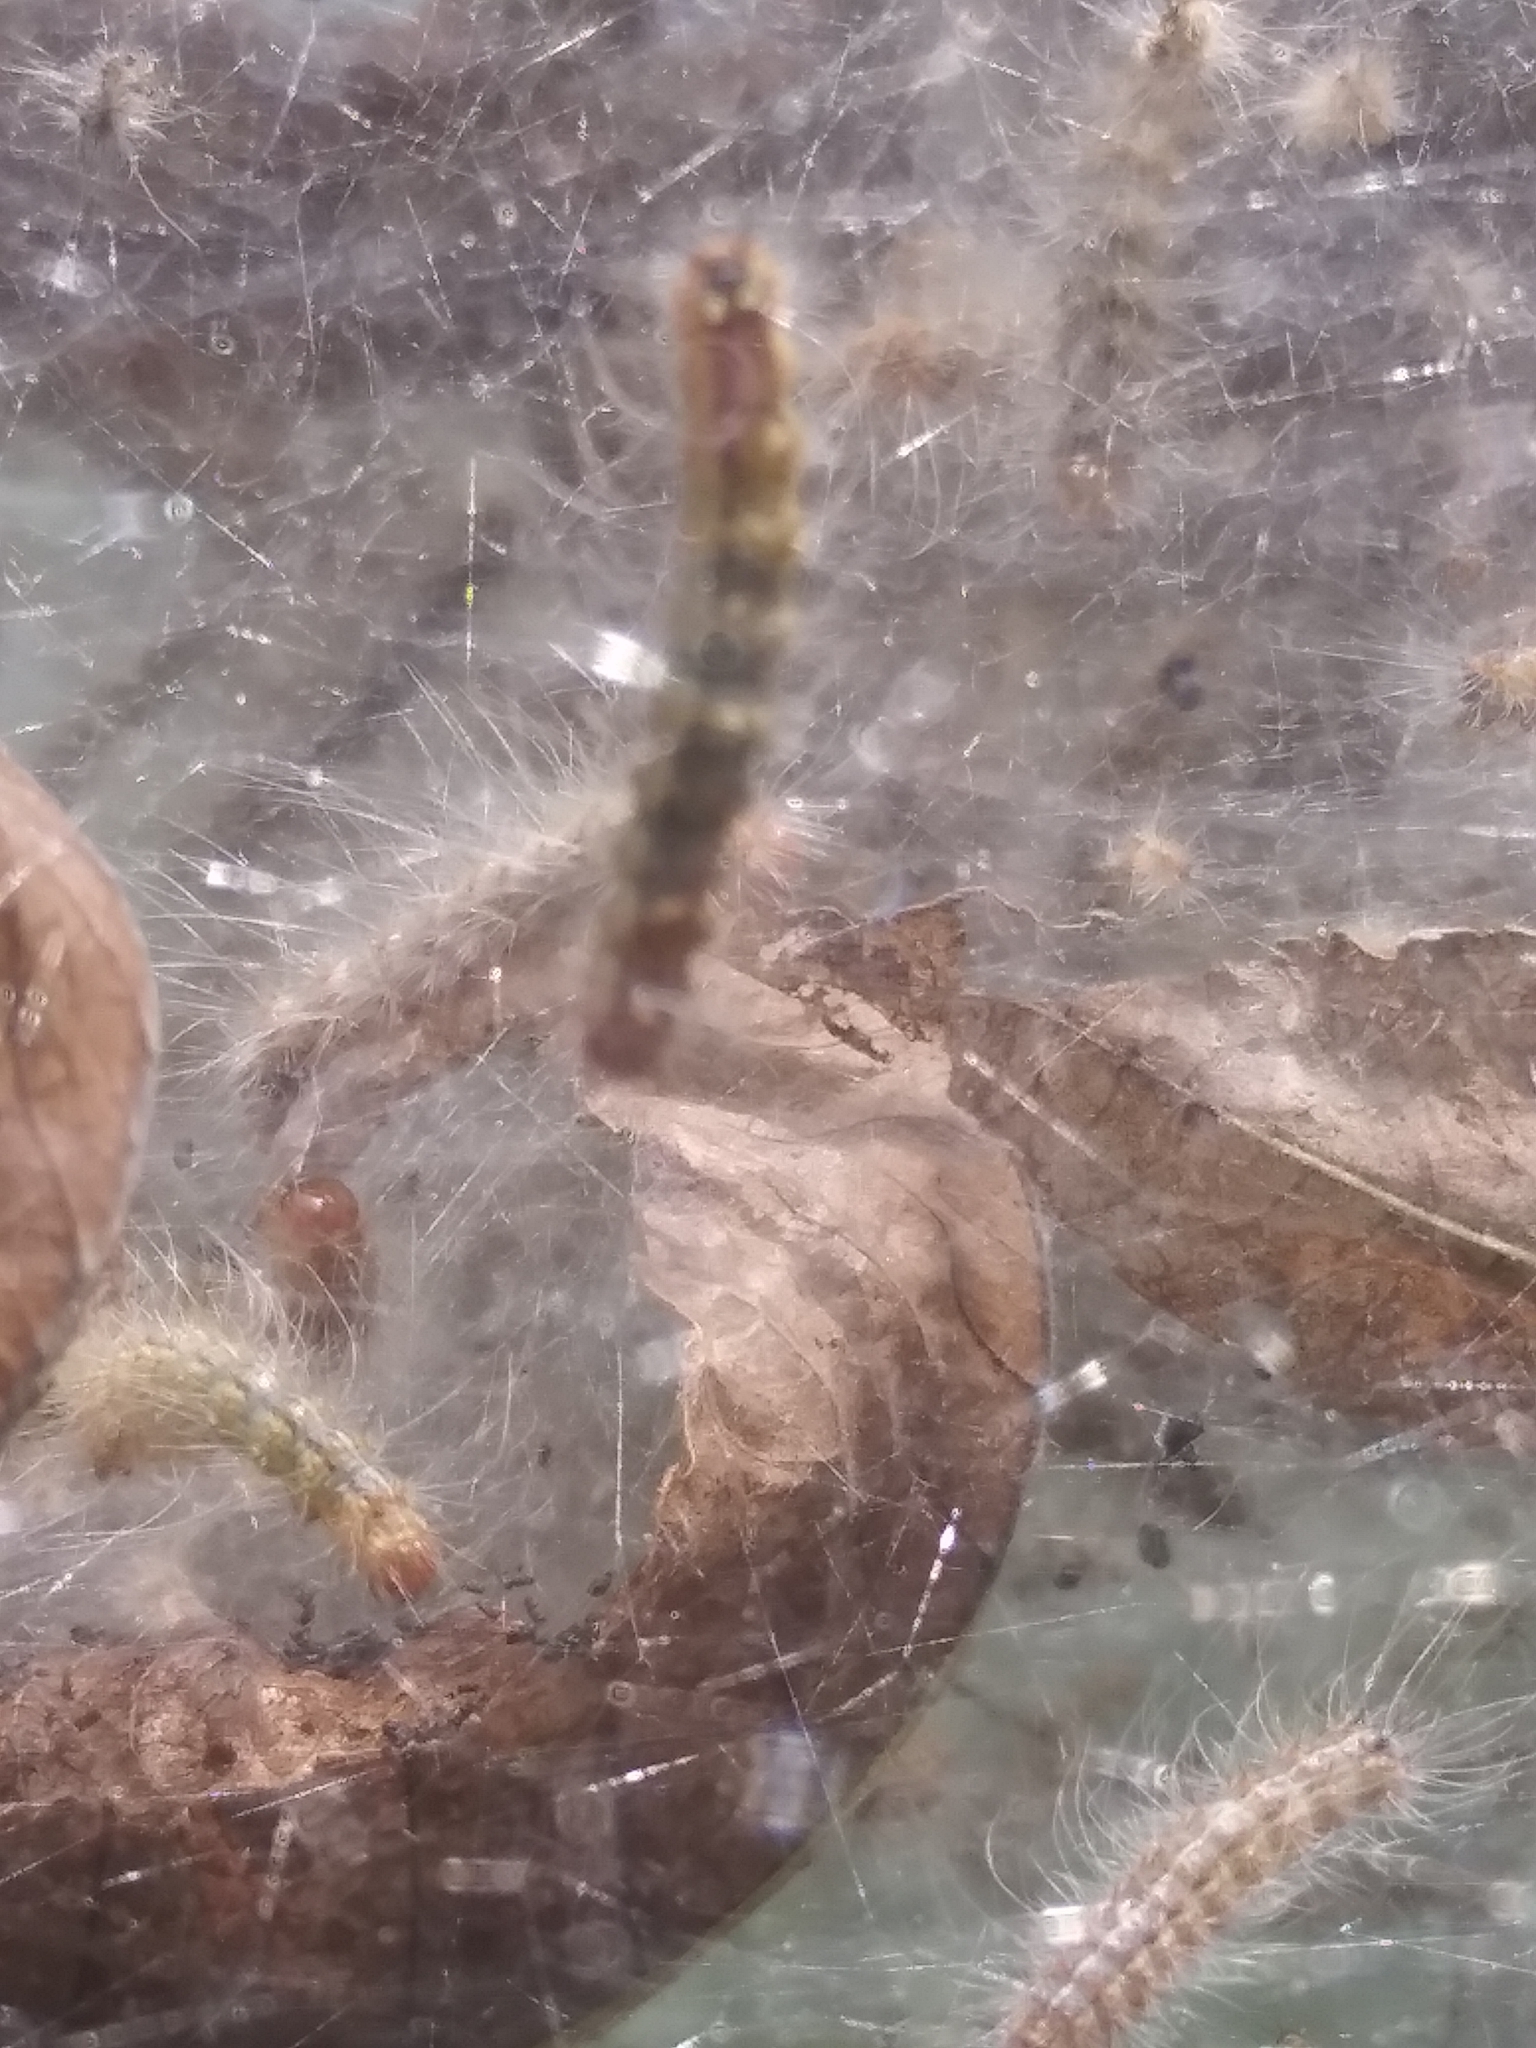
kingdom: Animalia
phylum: Arthropoda
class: Insecta
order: Lepidoptera
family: Erebidae
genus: Hyphantria
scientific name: Hyphantria cunea
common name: American white moth
